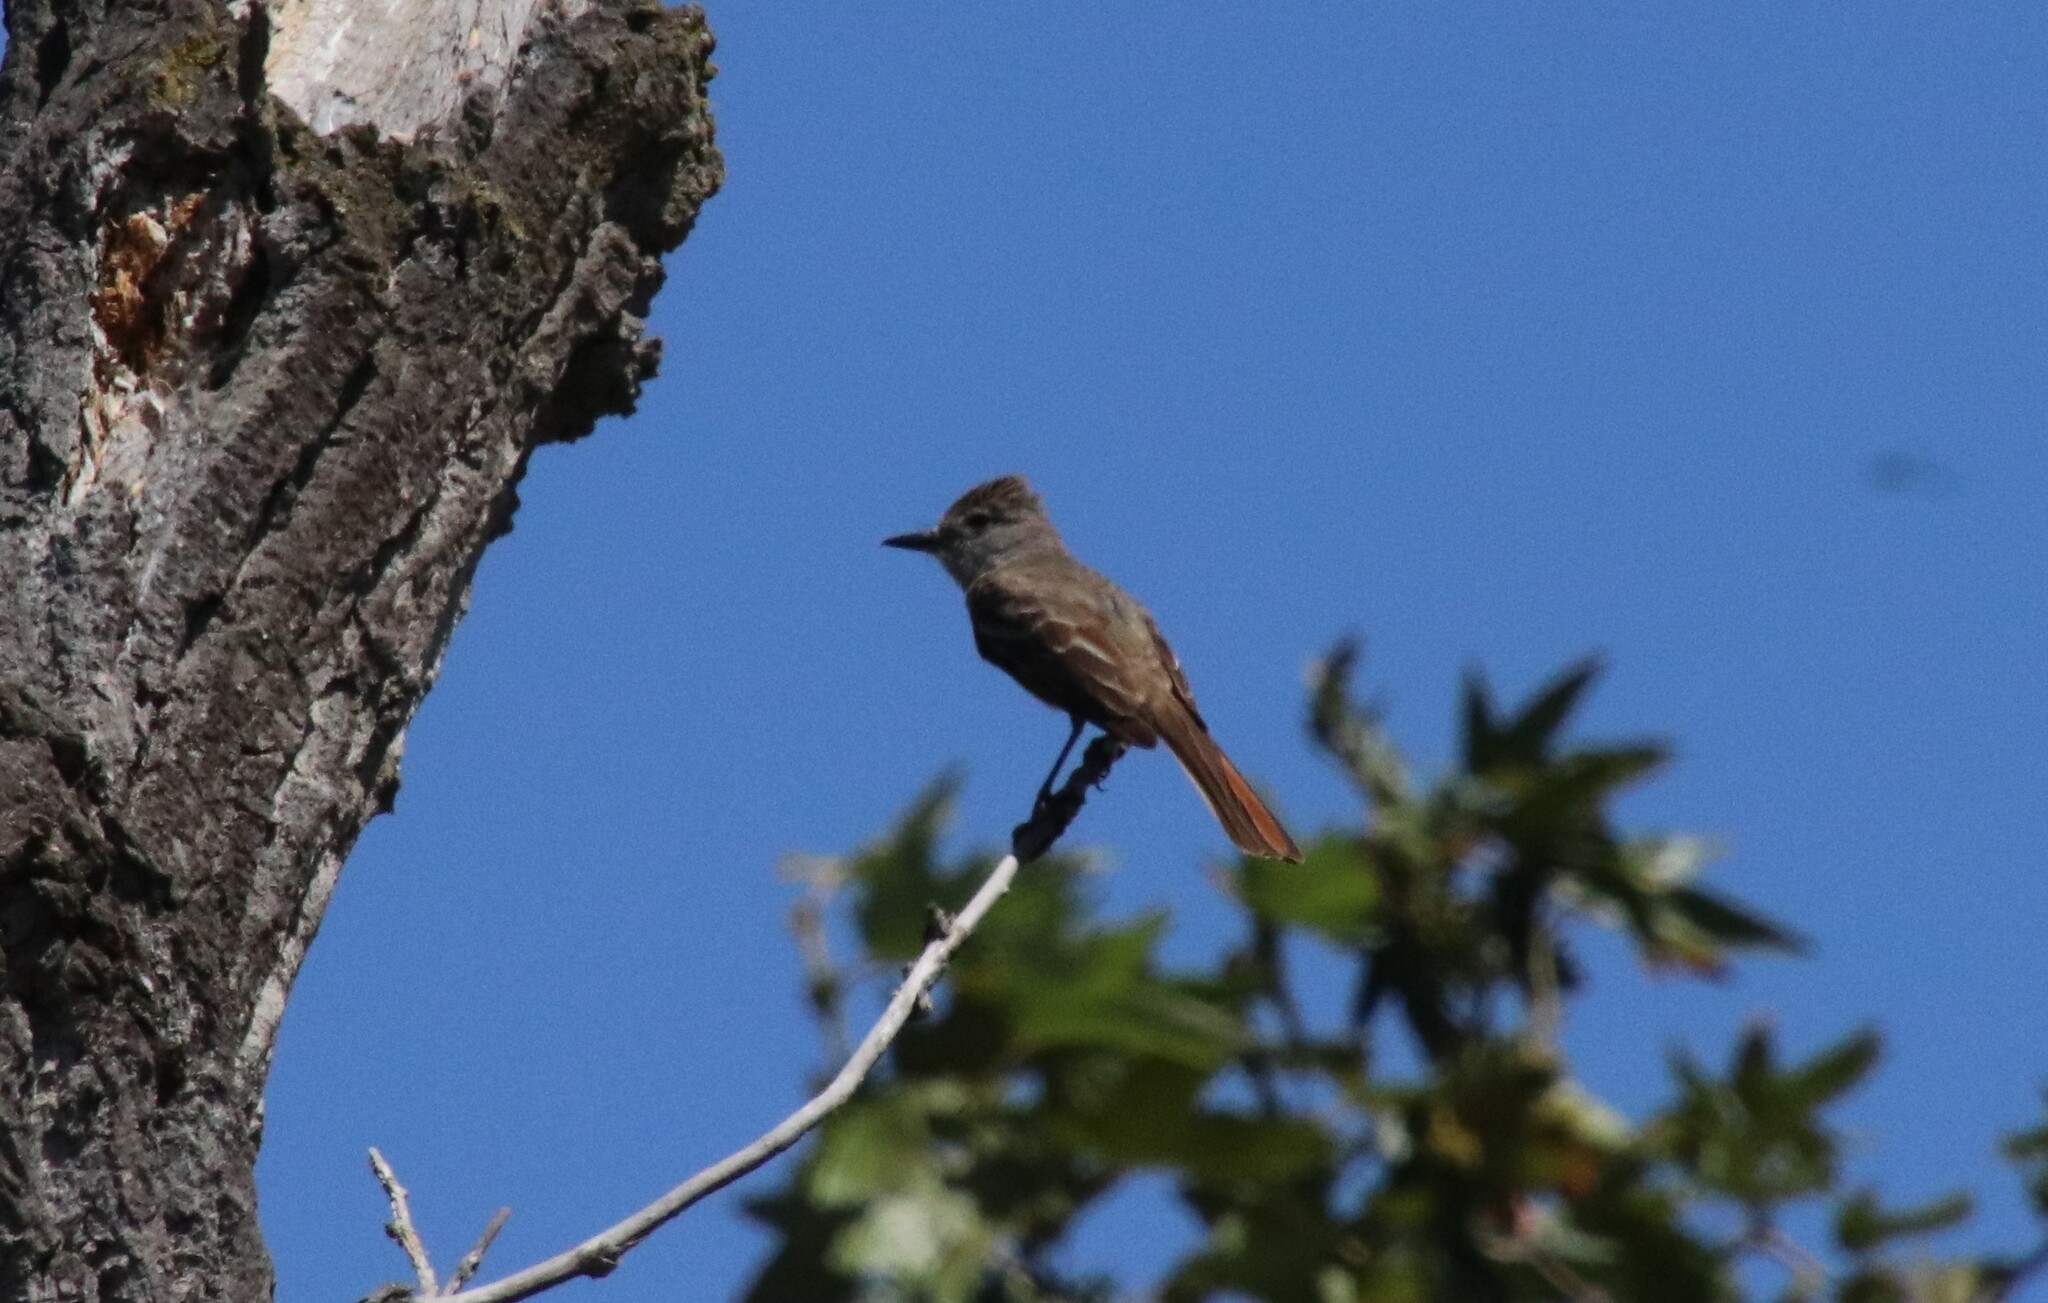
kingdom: Animalia
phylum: Chordata
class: Aves
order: Passeriformes
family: Tyrannidae
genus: Myiarchus
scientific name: Myiarchus cinerascens
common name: Ash-throated flycatcher
